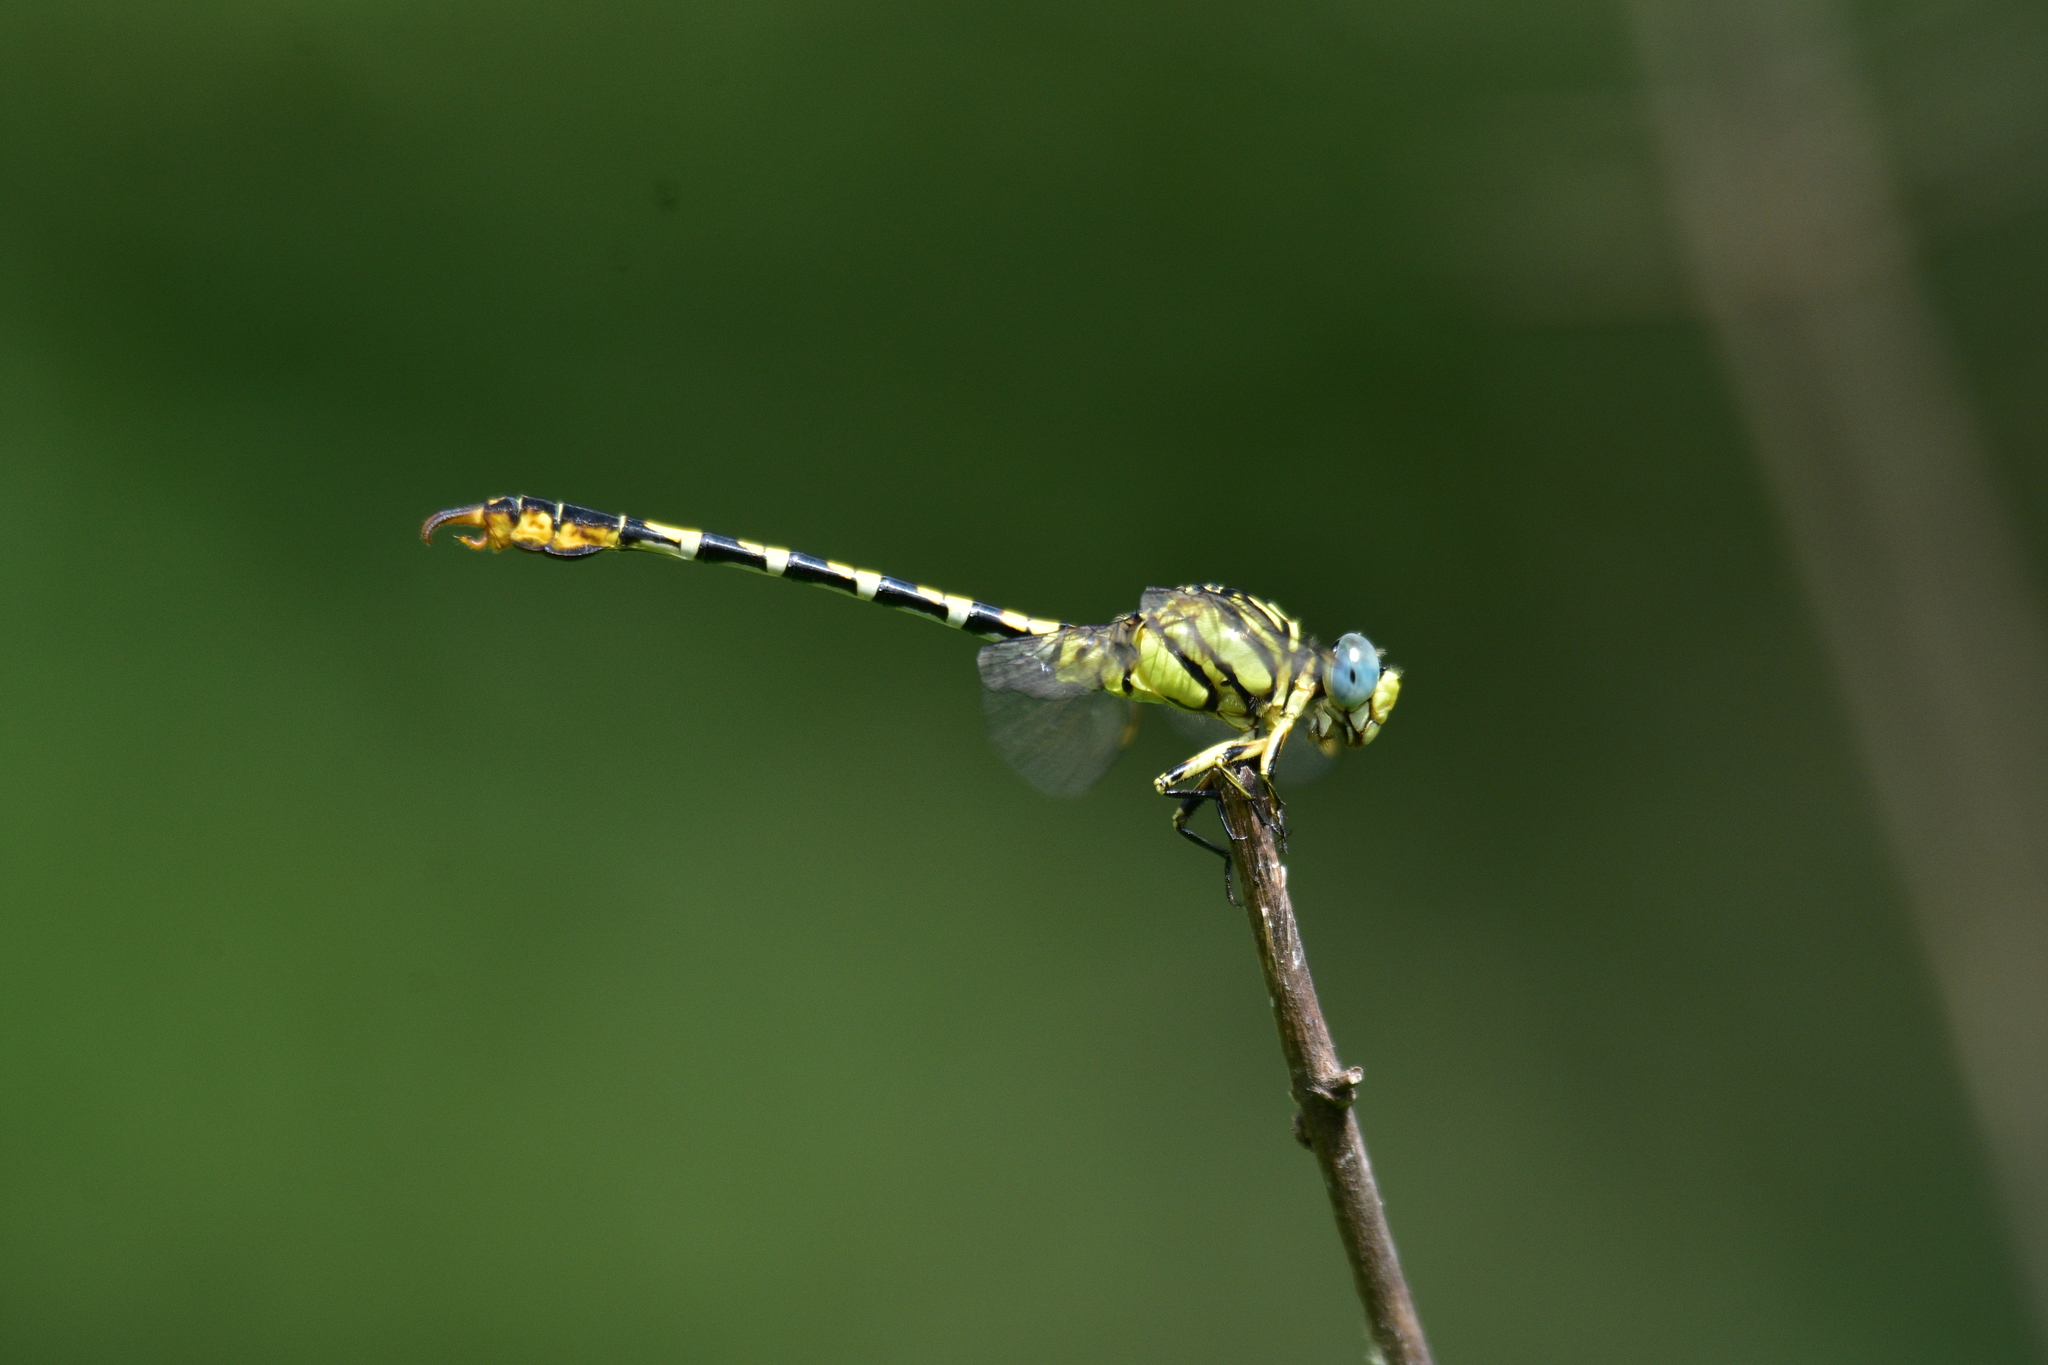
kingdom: Animalia
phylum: Arthropoda
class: Insecta
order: Odonata
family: Gomphidae
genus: Paragomphus
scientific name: Paragomphus lineatus
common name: Lined hooktail
